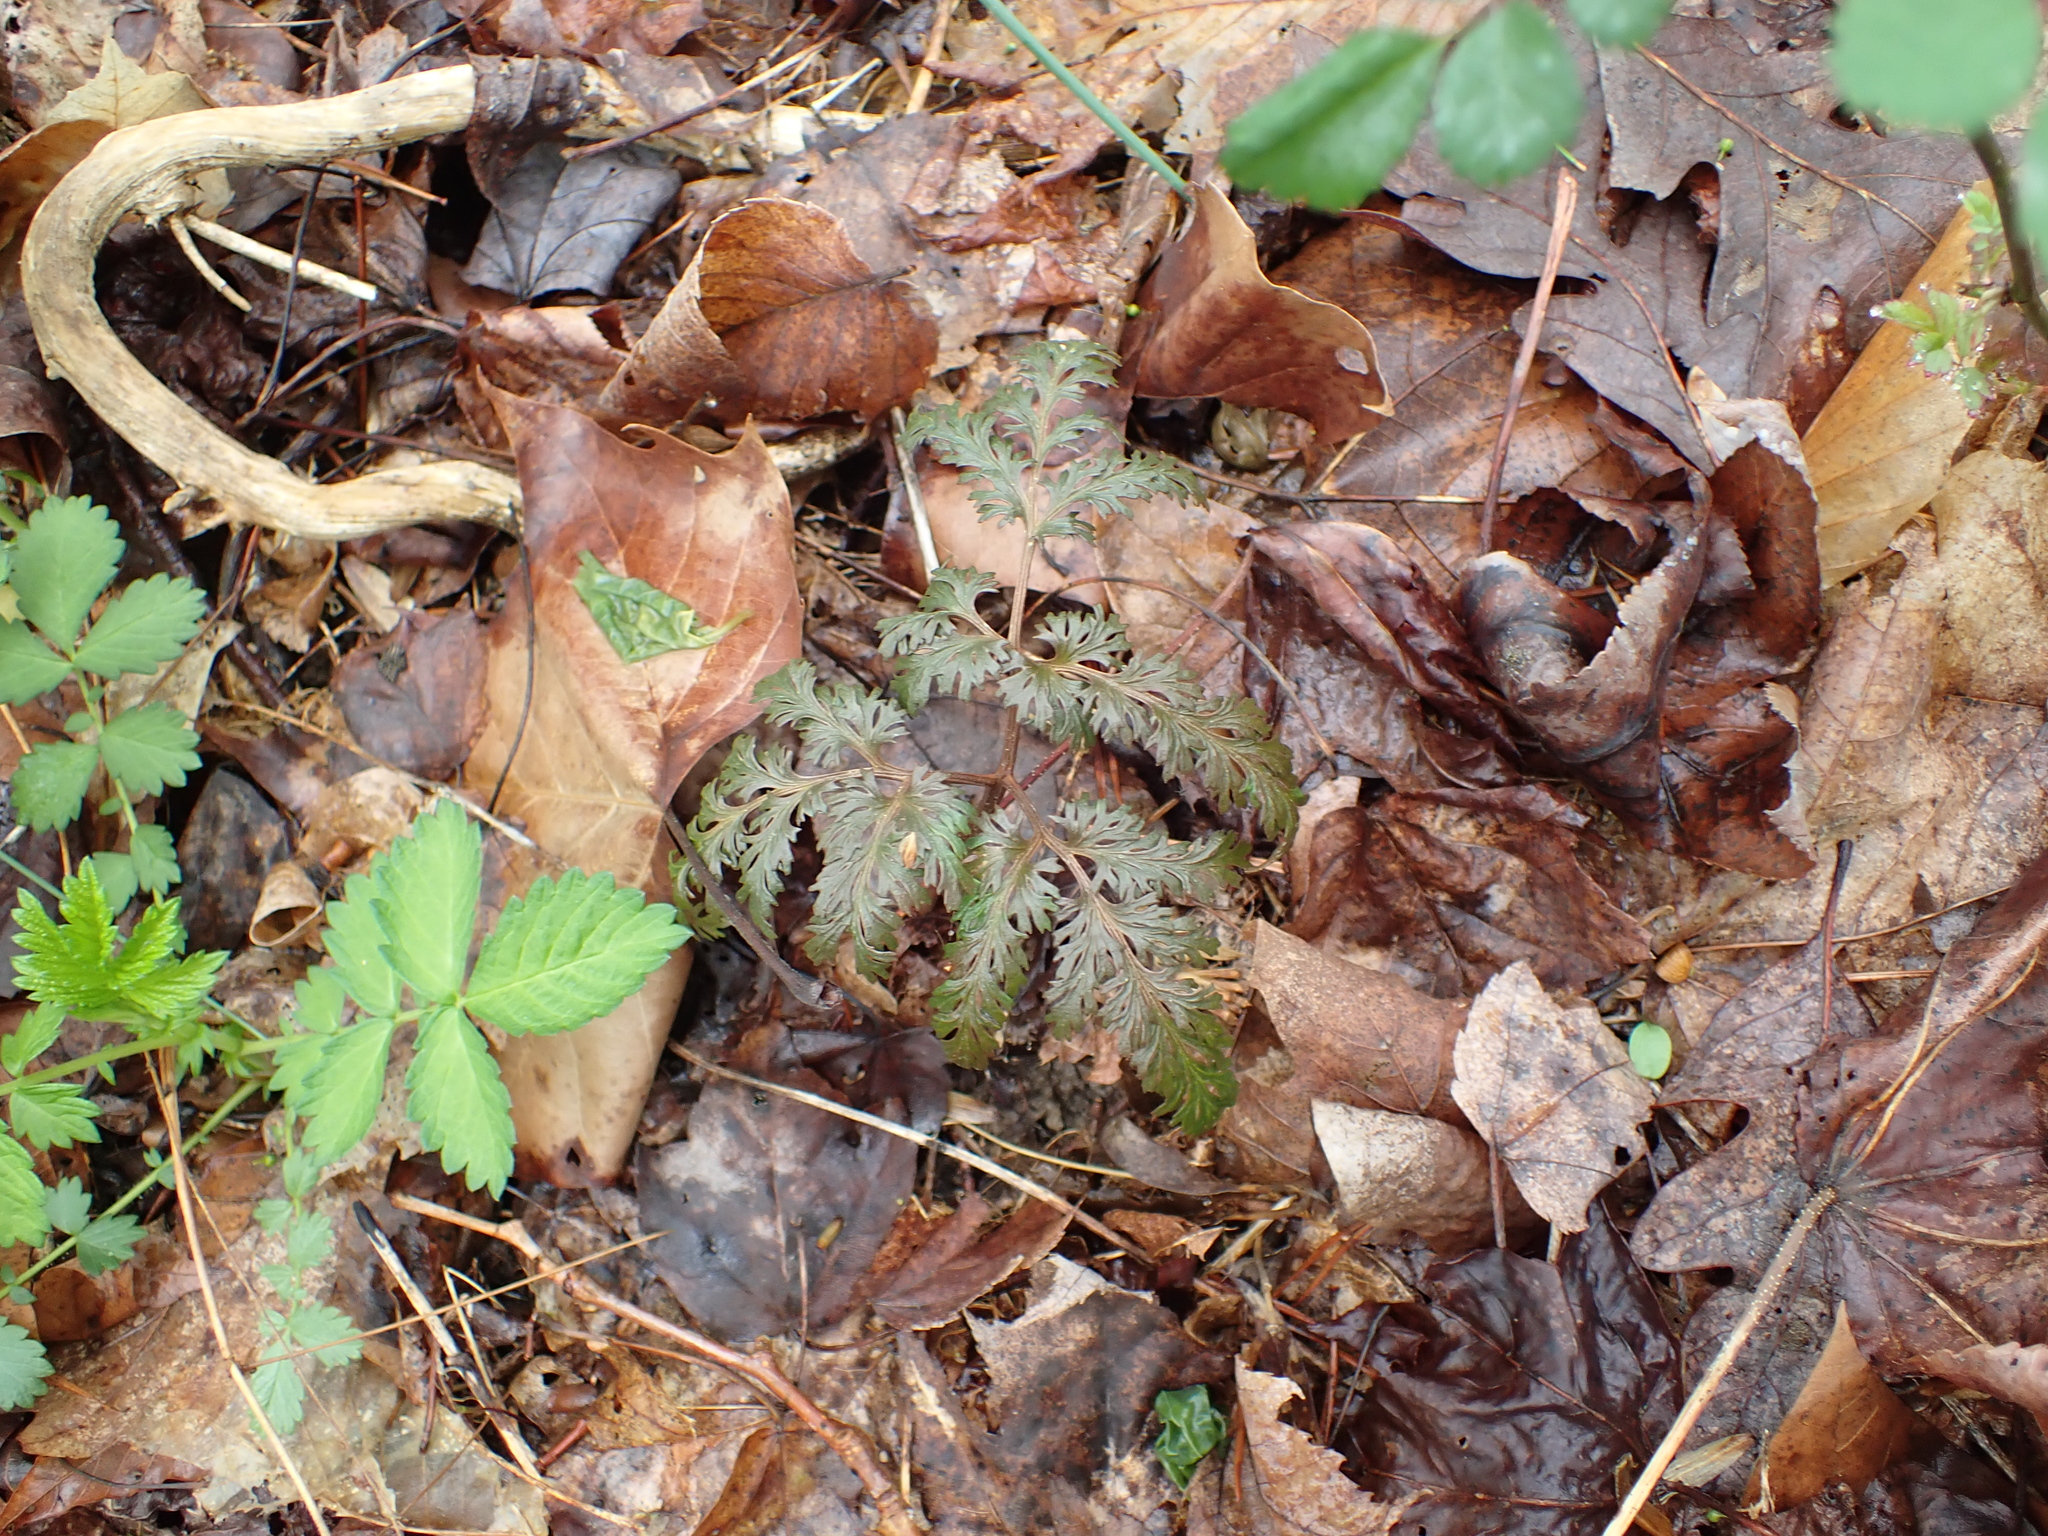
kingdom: Plantae
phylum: Tracheophyta
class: Polypodiopsida
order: Ophioglossales
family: Ophioglossaceae
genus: Sceptridium
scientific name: Sceptridium dissectum
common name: Cut-leaved grapefern
